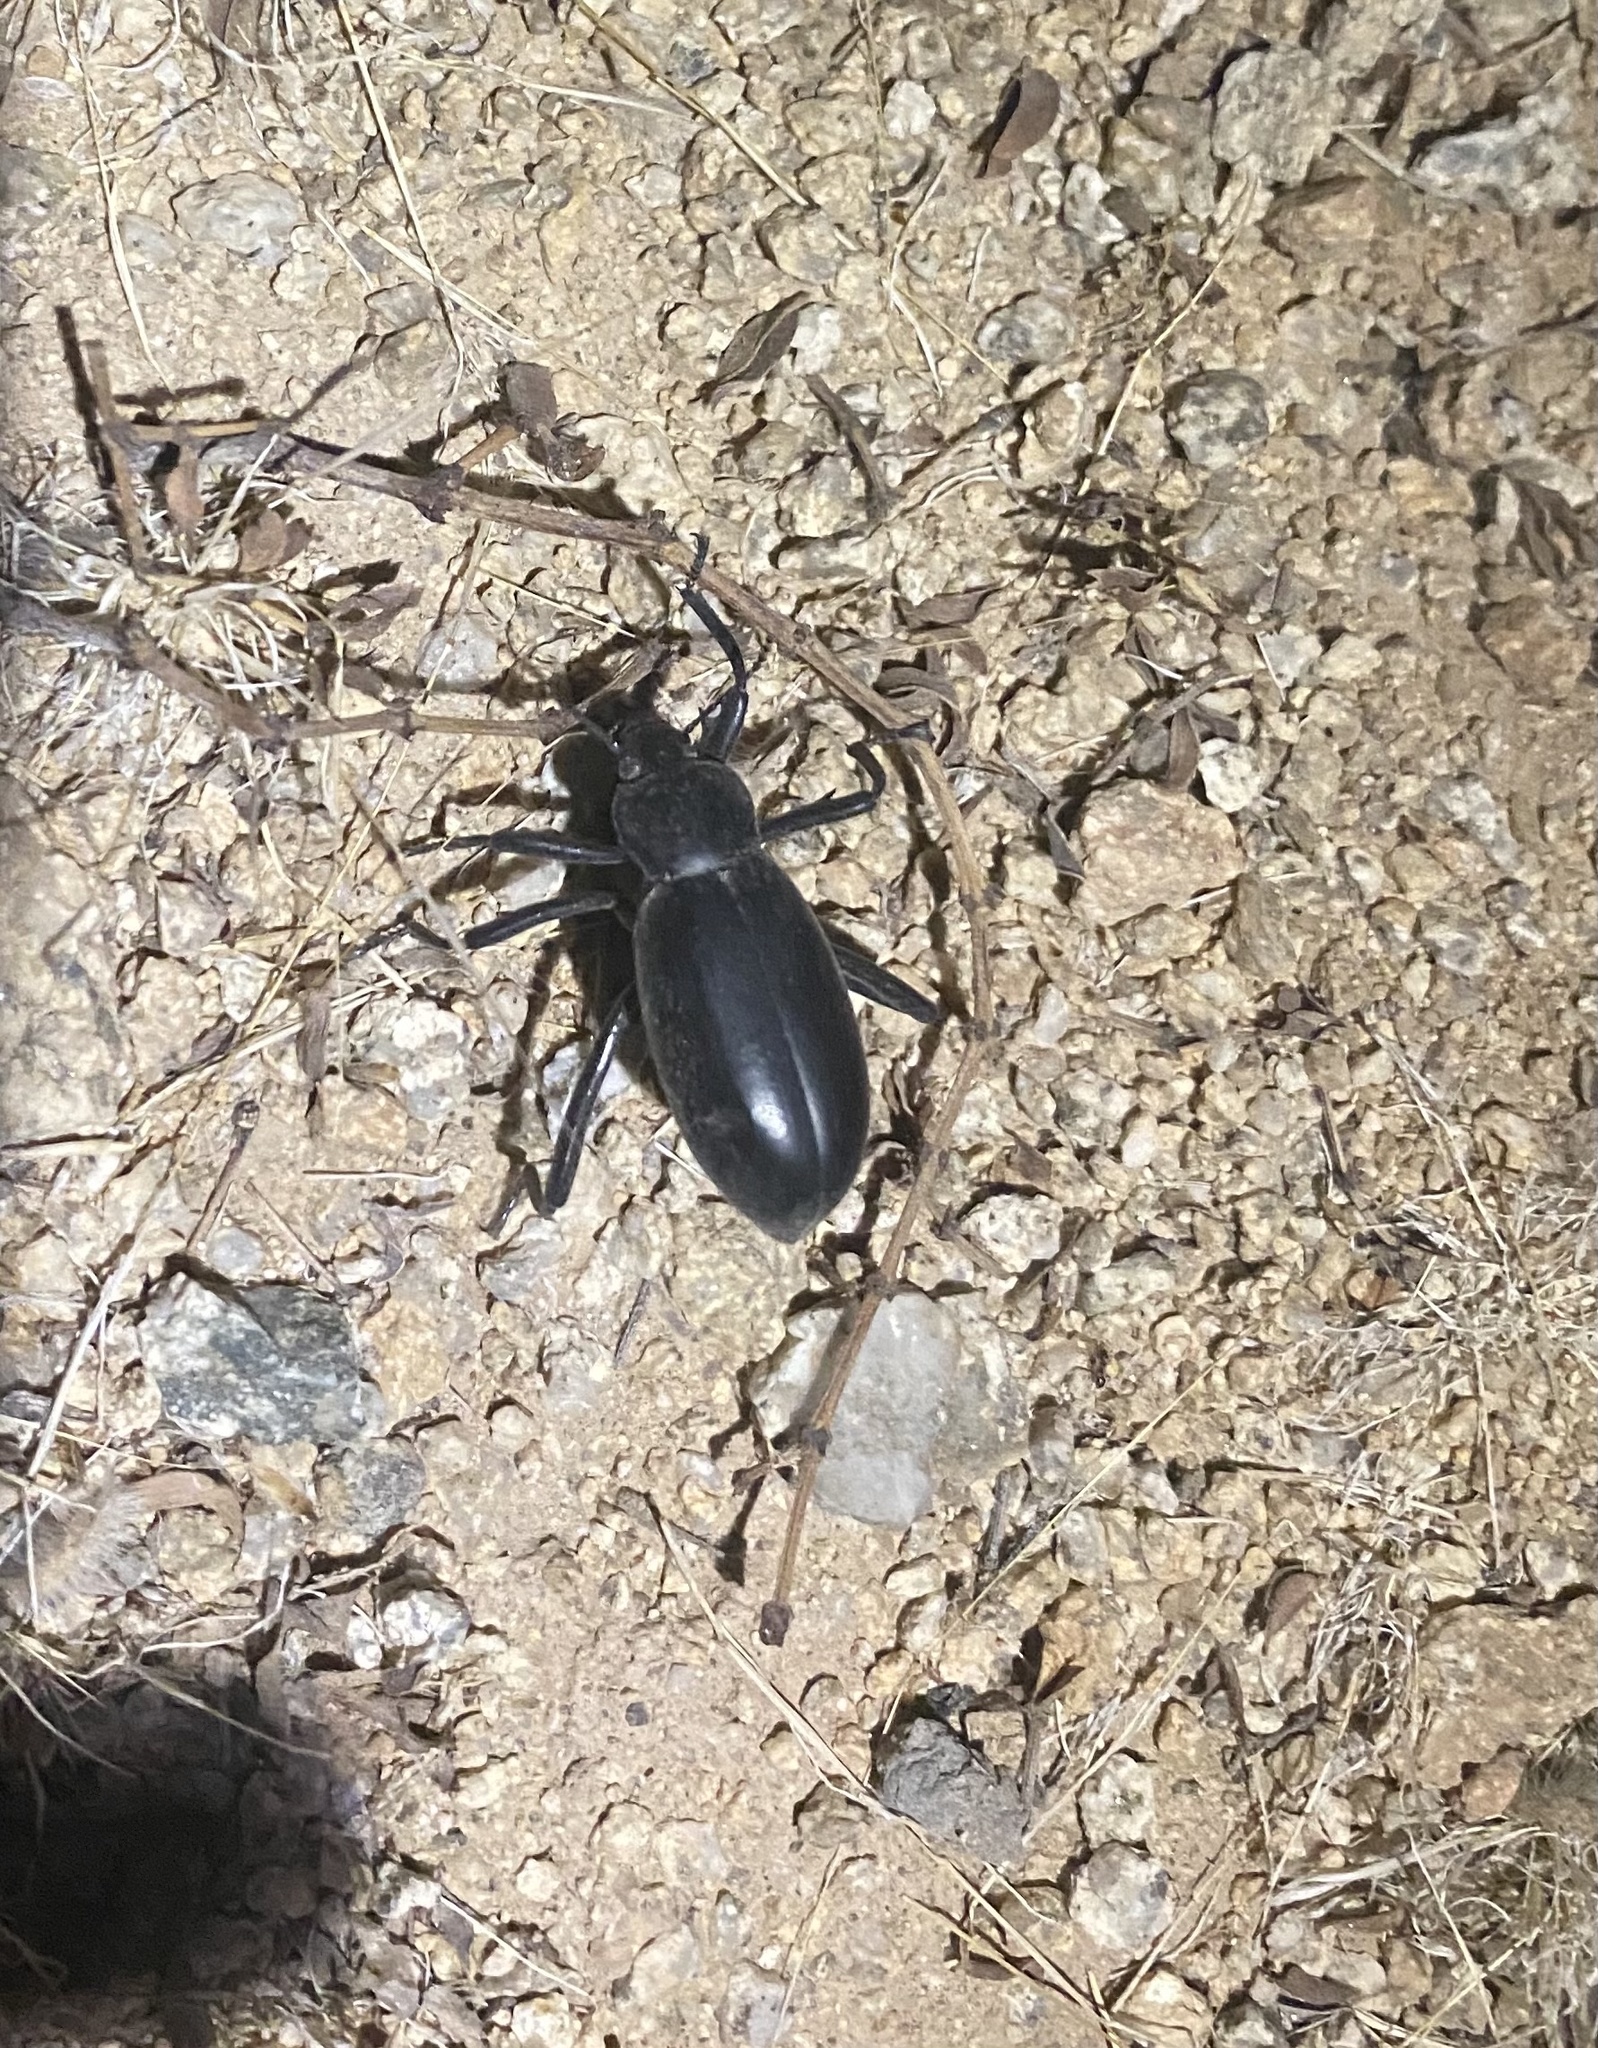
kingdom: Animalia
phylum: Arthropoda
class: Insecta
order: Coleoptera
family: Tenebrionidae
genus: Eleodes
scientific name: Eleodes armata
